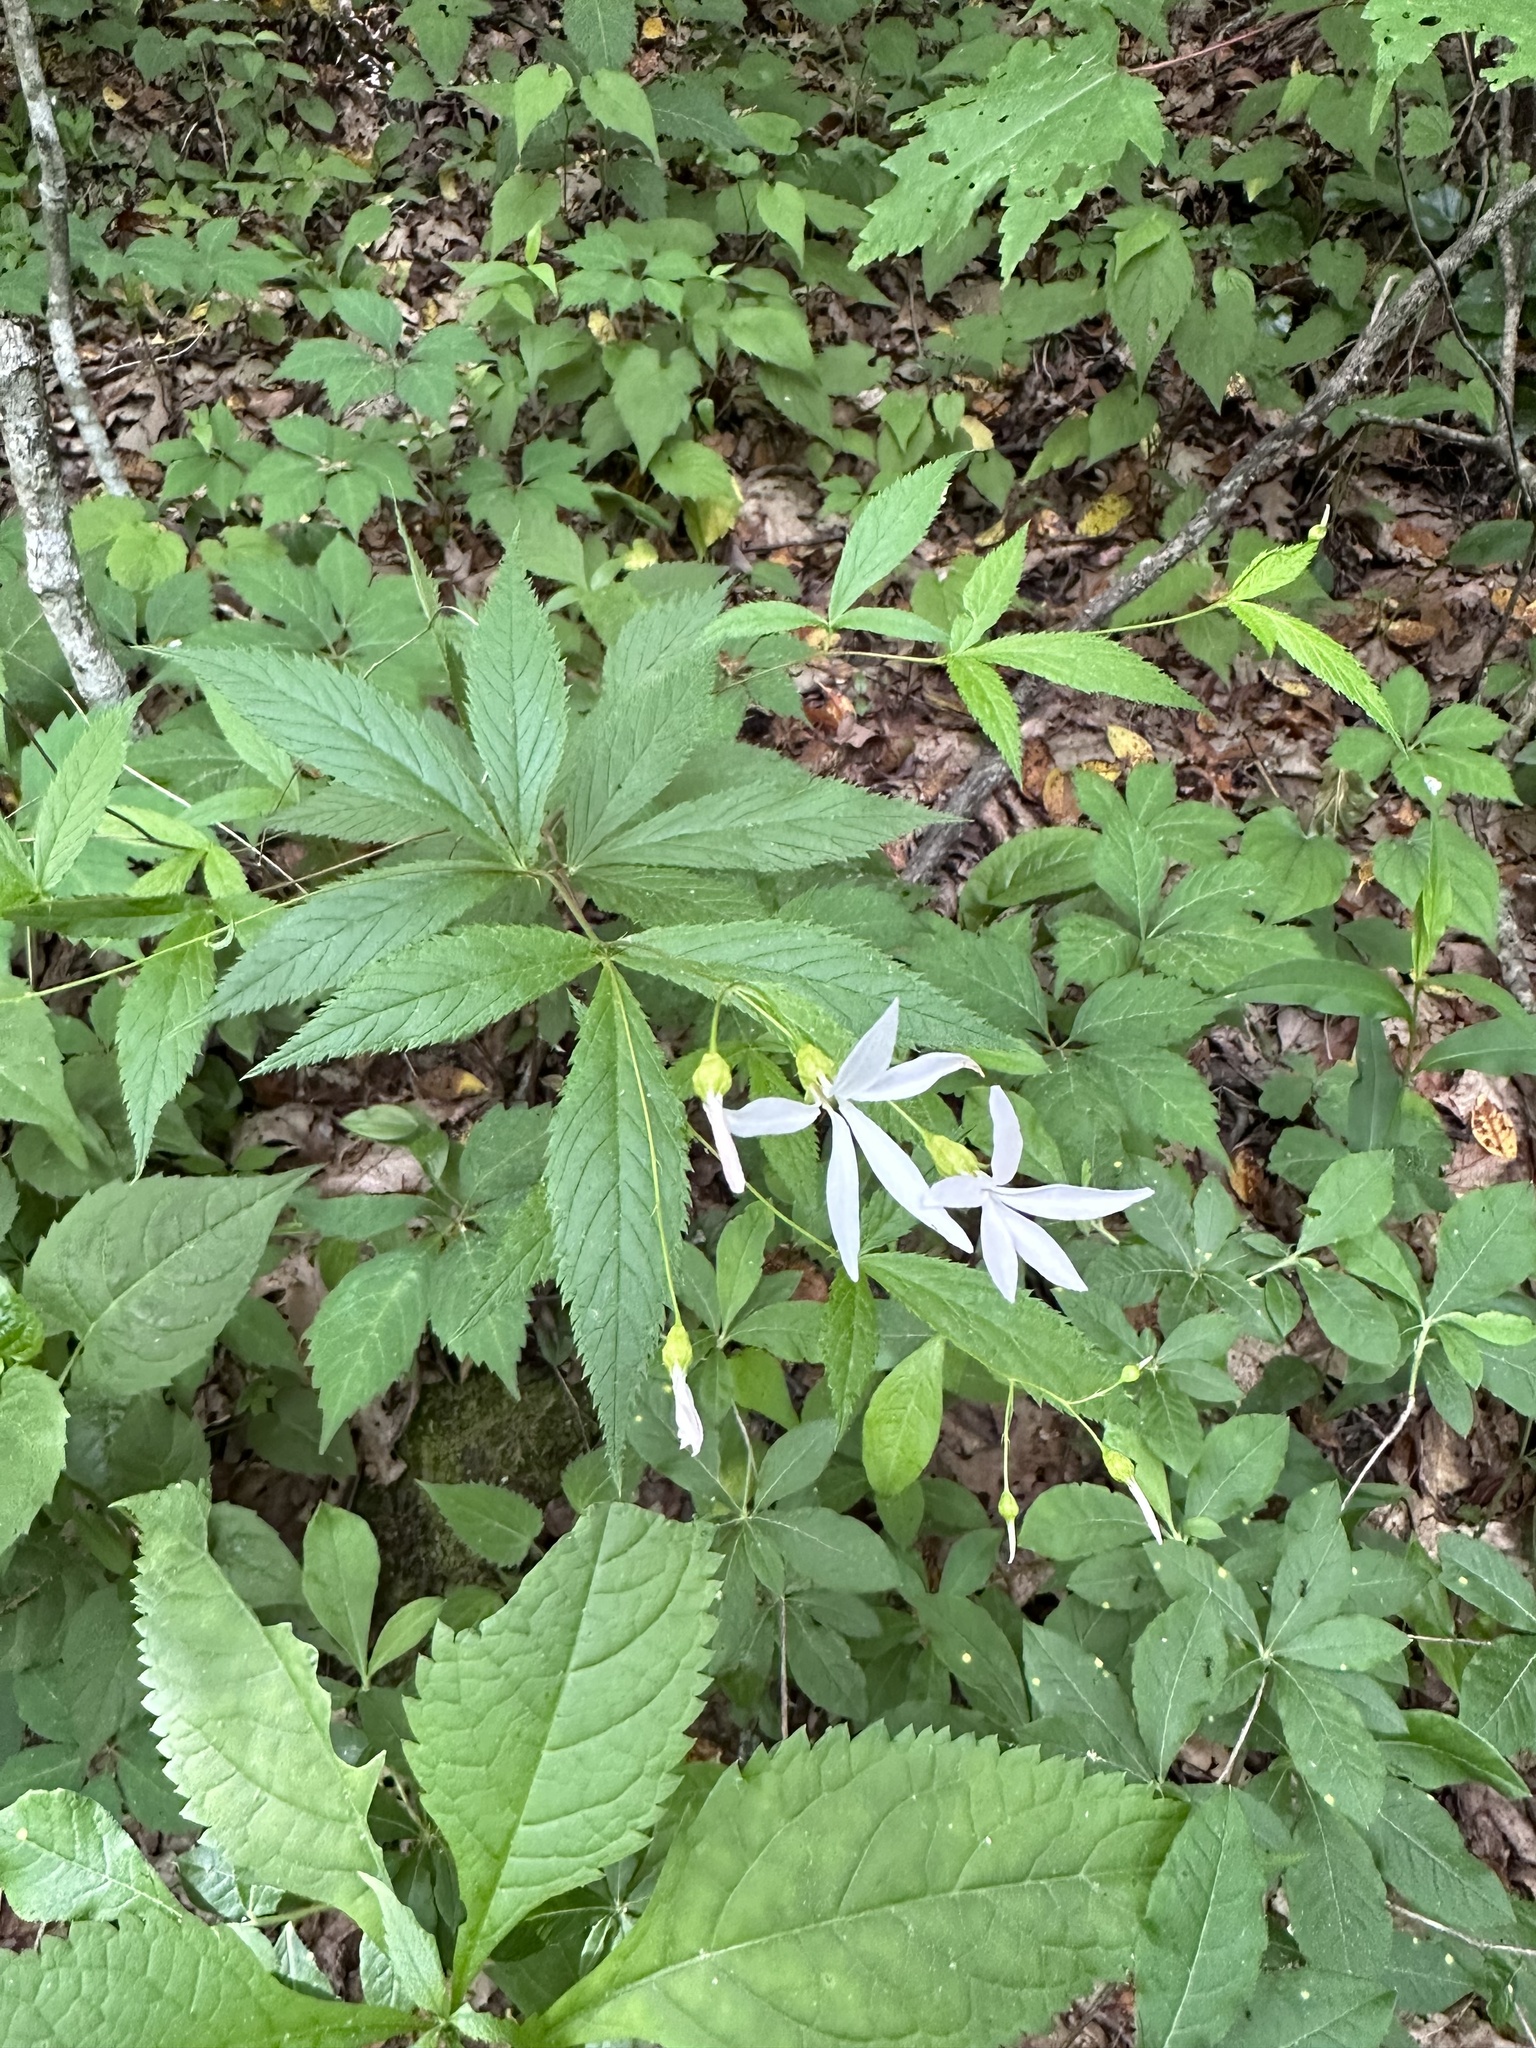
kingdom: Plantae
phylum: Tracheophyta
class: Magnoliopsida
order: Rosales
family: Rosaceae
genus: Gillenia
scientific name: Gillenia trifoliata
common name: Bowman's-root
